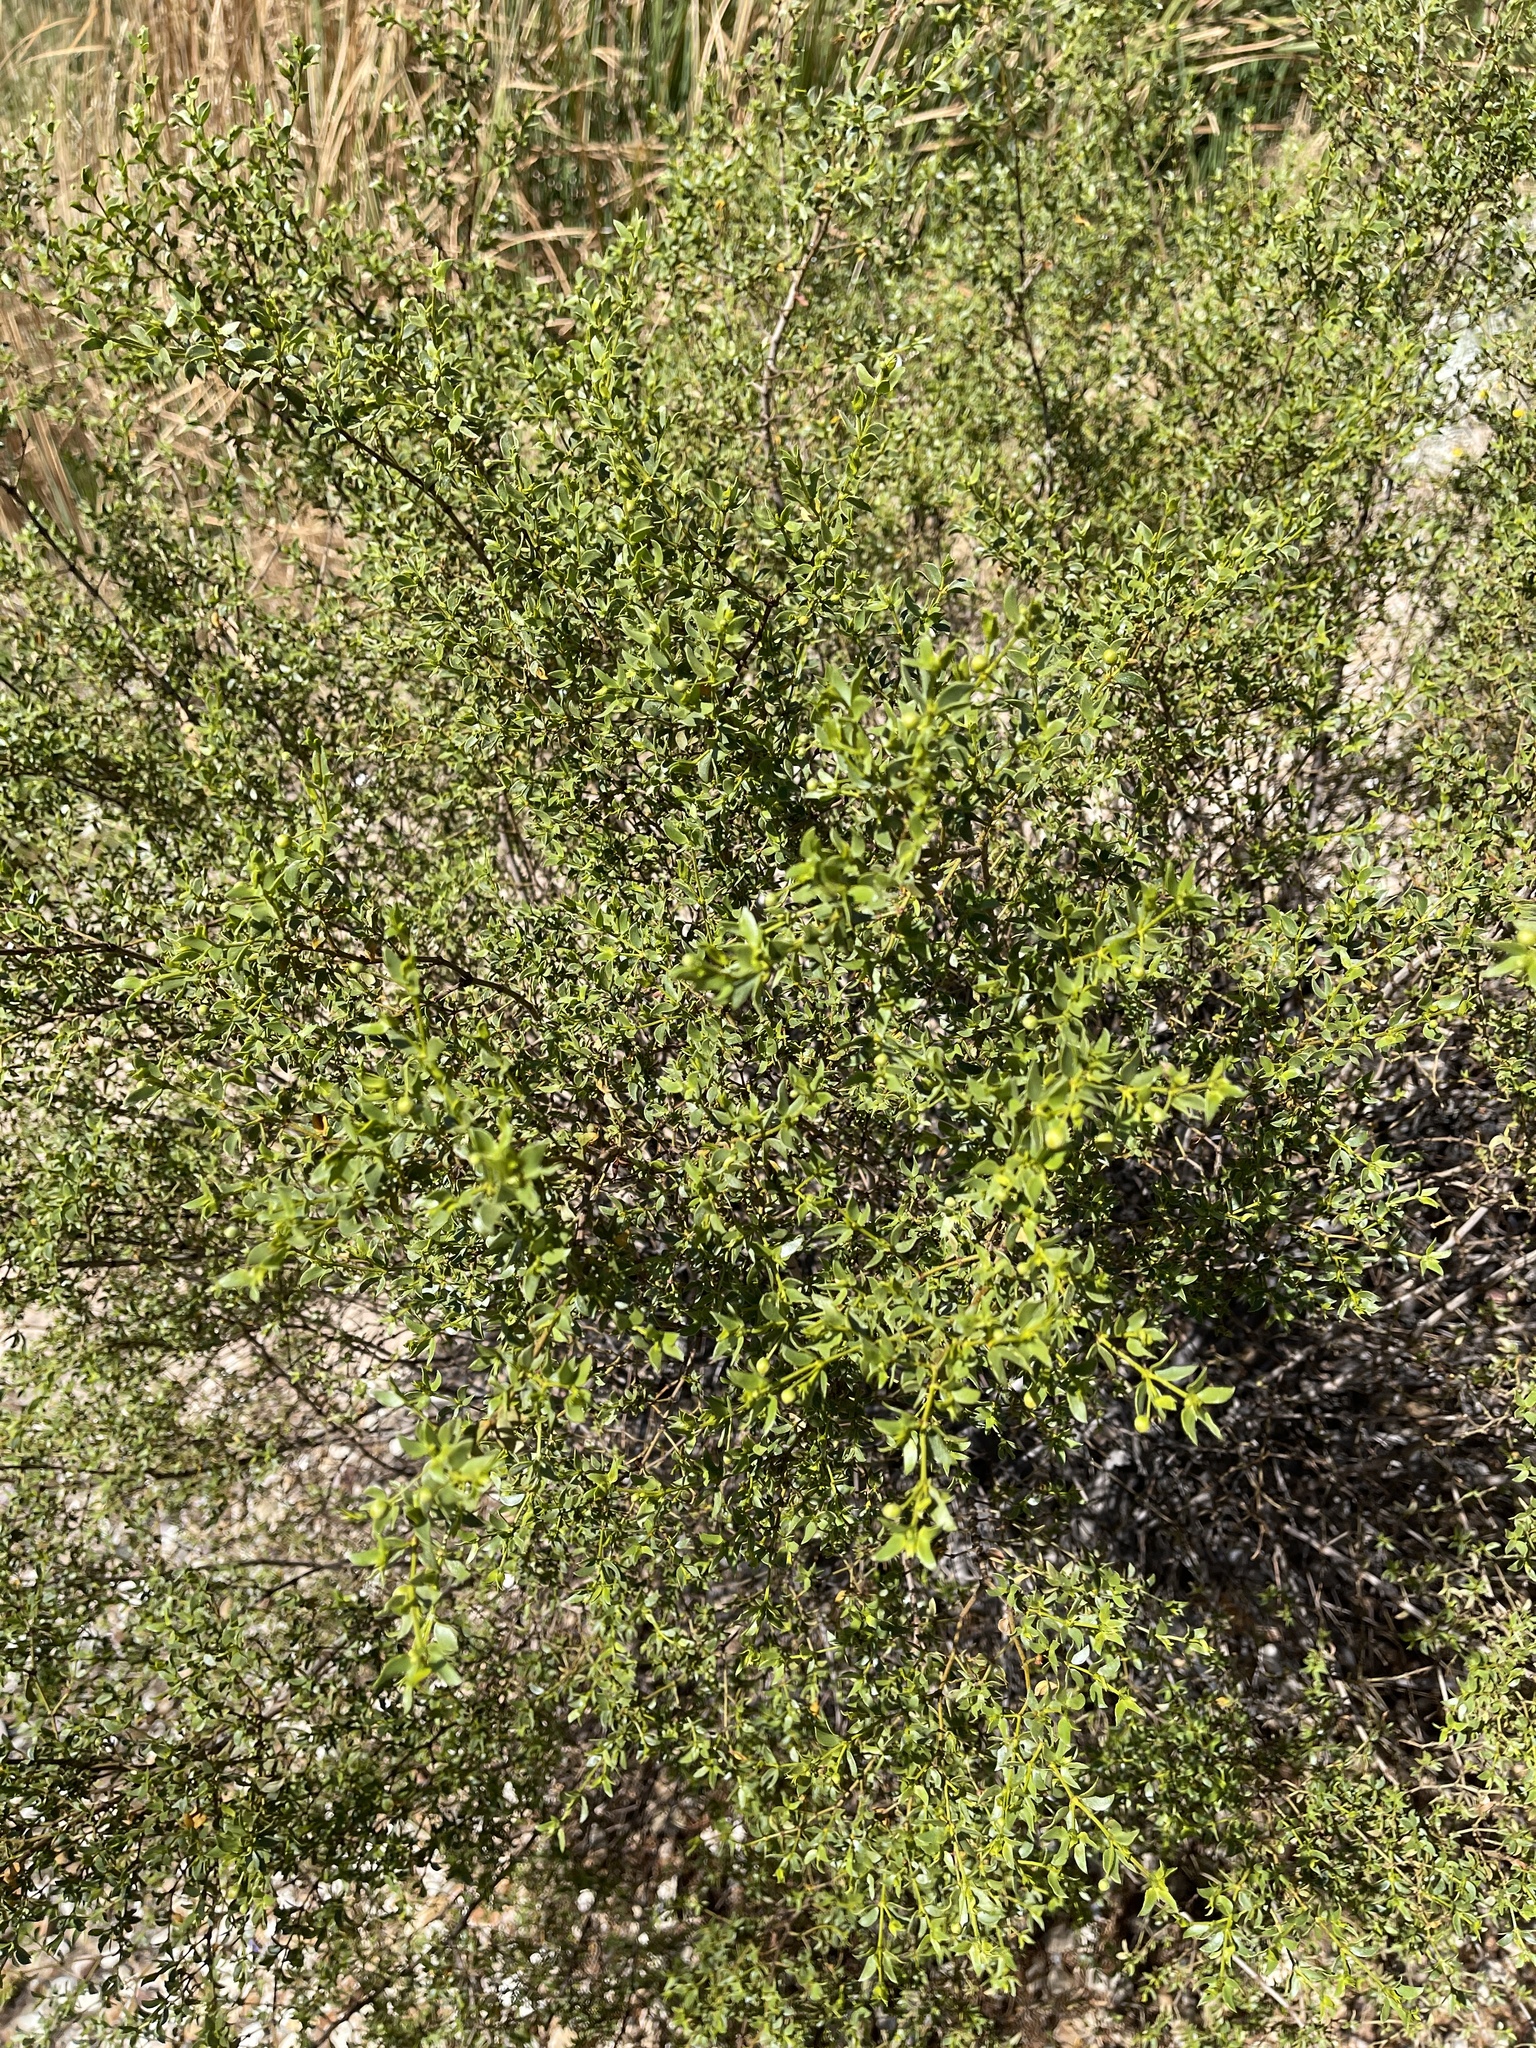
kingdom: Plantae
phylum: Tracheophyta
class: Magnoliopsida
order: Zygophyllales
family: Zygophyllaceae
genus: Larrea
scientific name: Larrea tridentata
